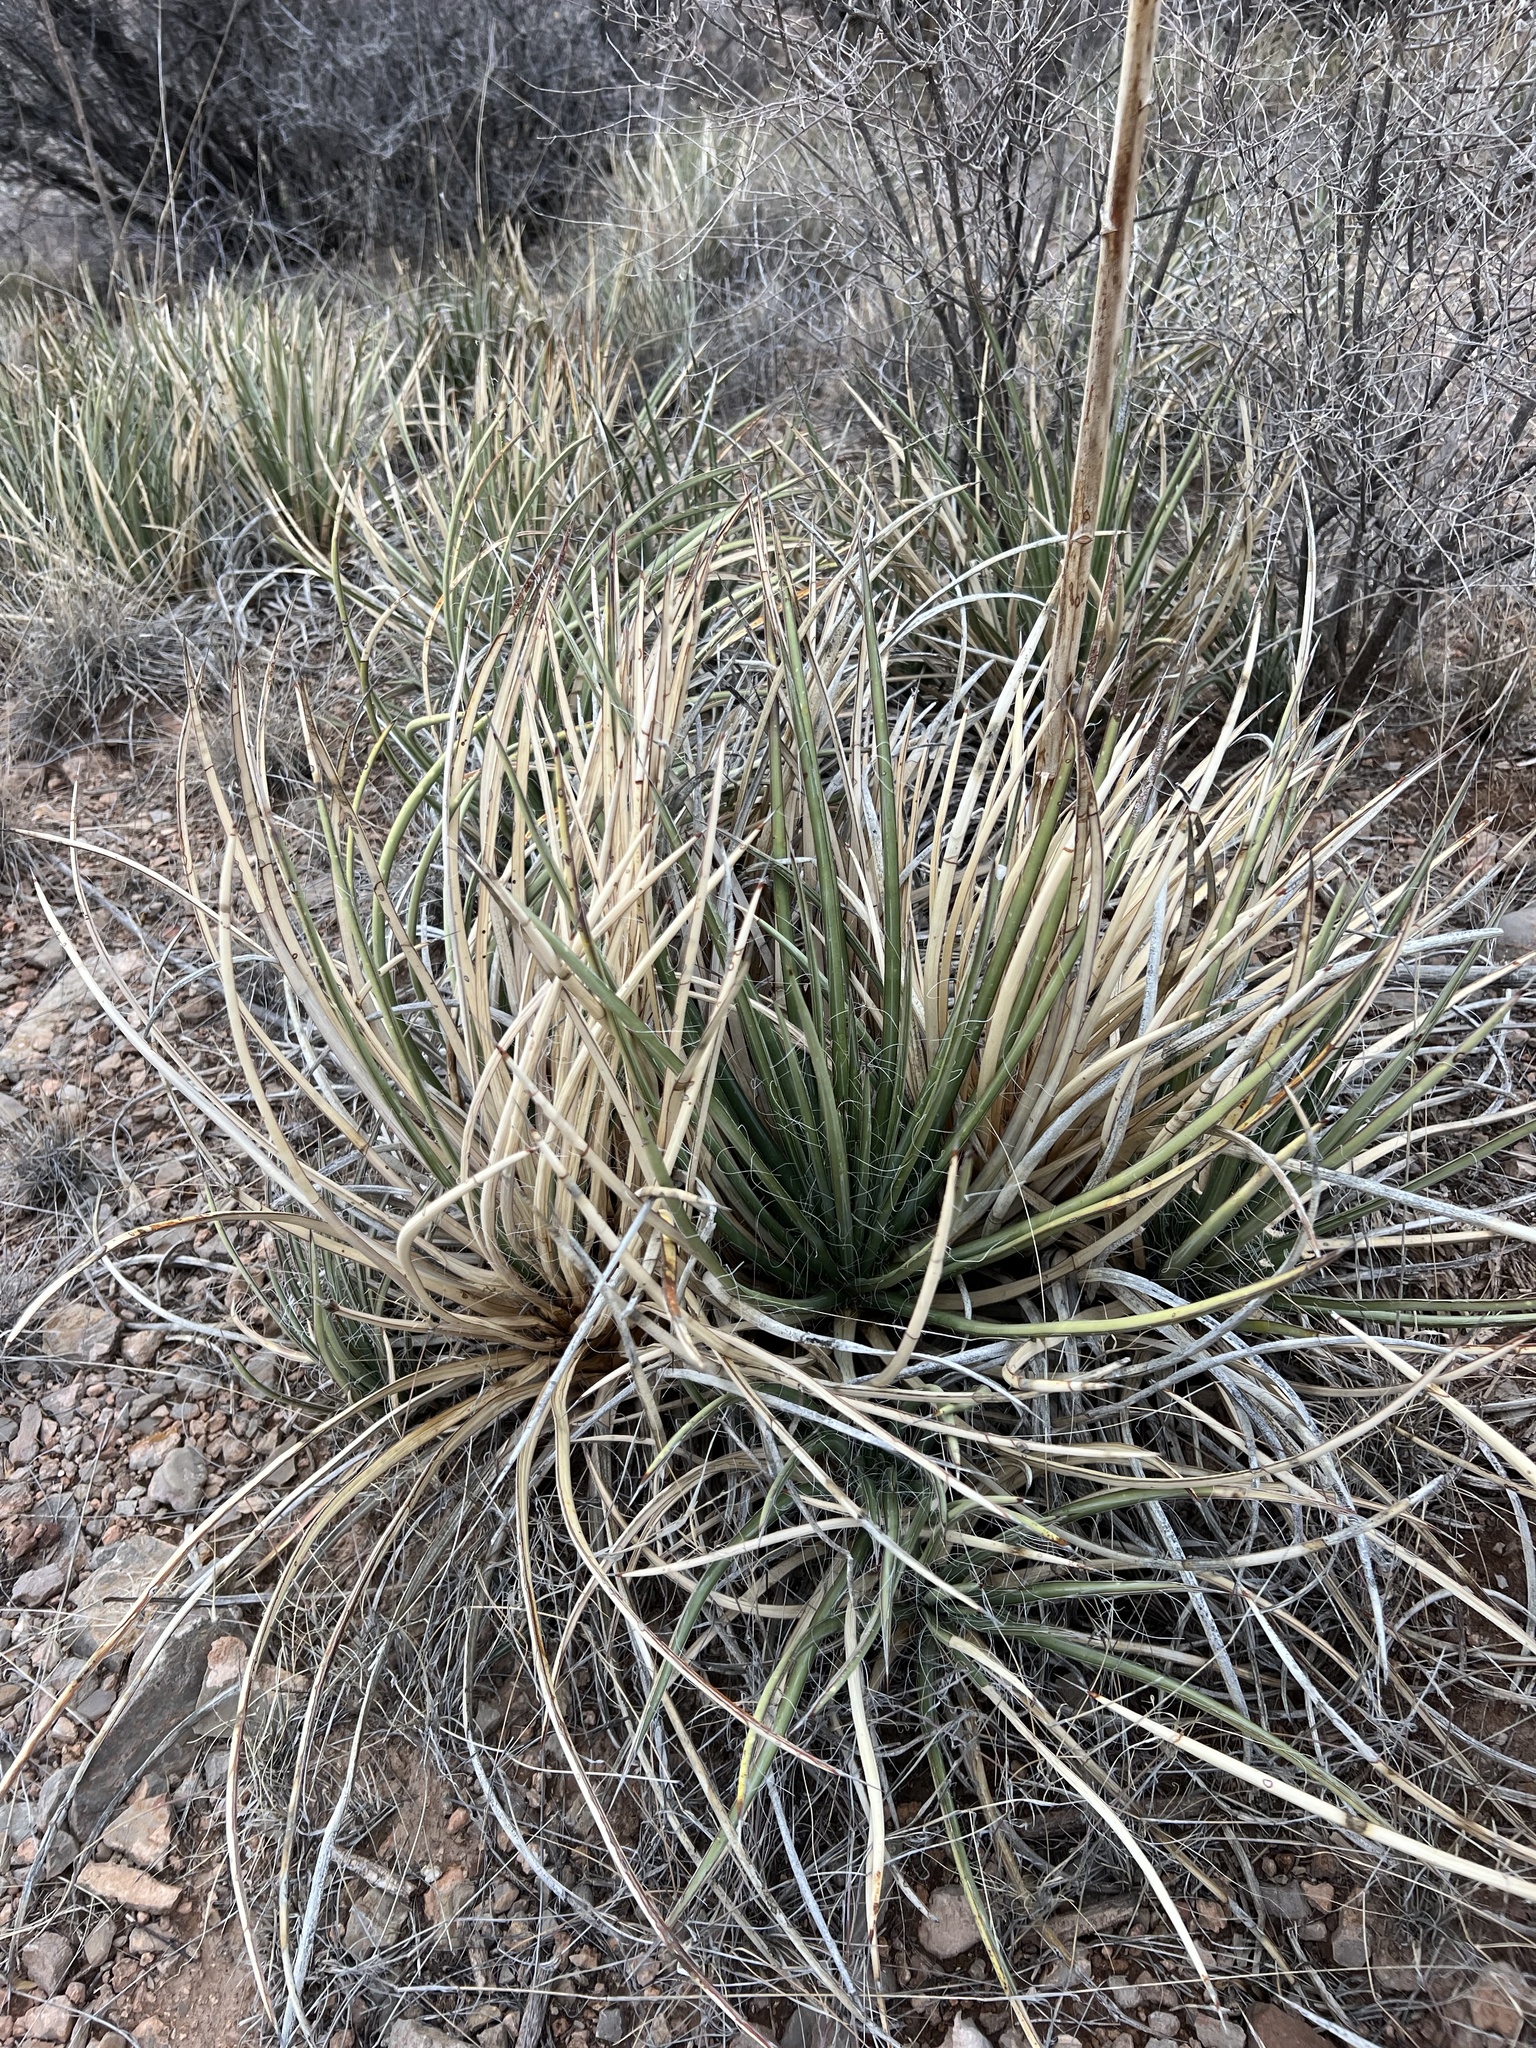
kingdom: Plantae
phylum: Tracheophyta
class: Liliopsida
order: Asparagales
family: Asparagaceae
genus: Agave
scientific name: Agave schottii
